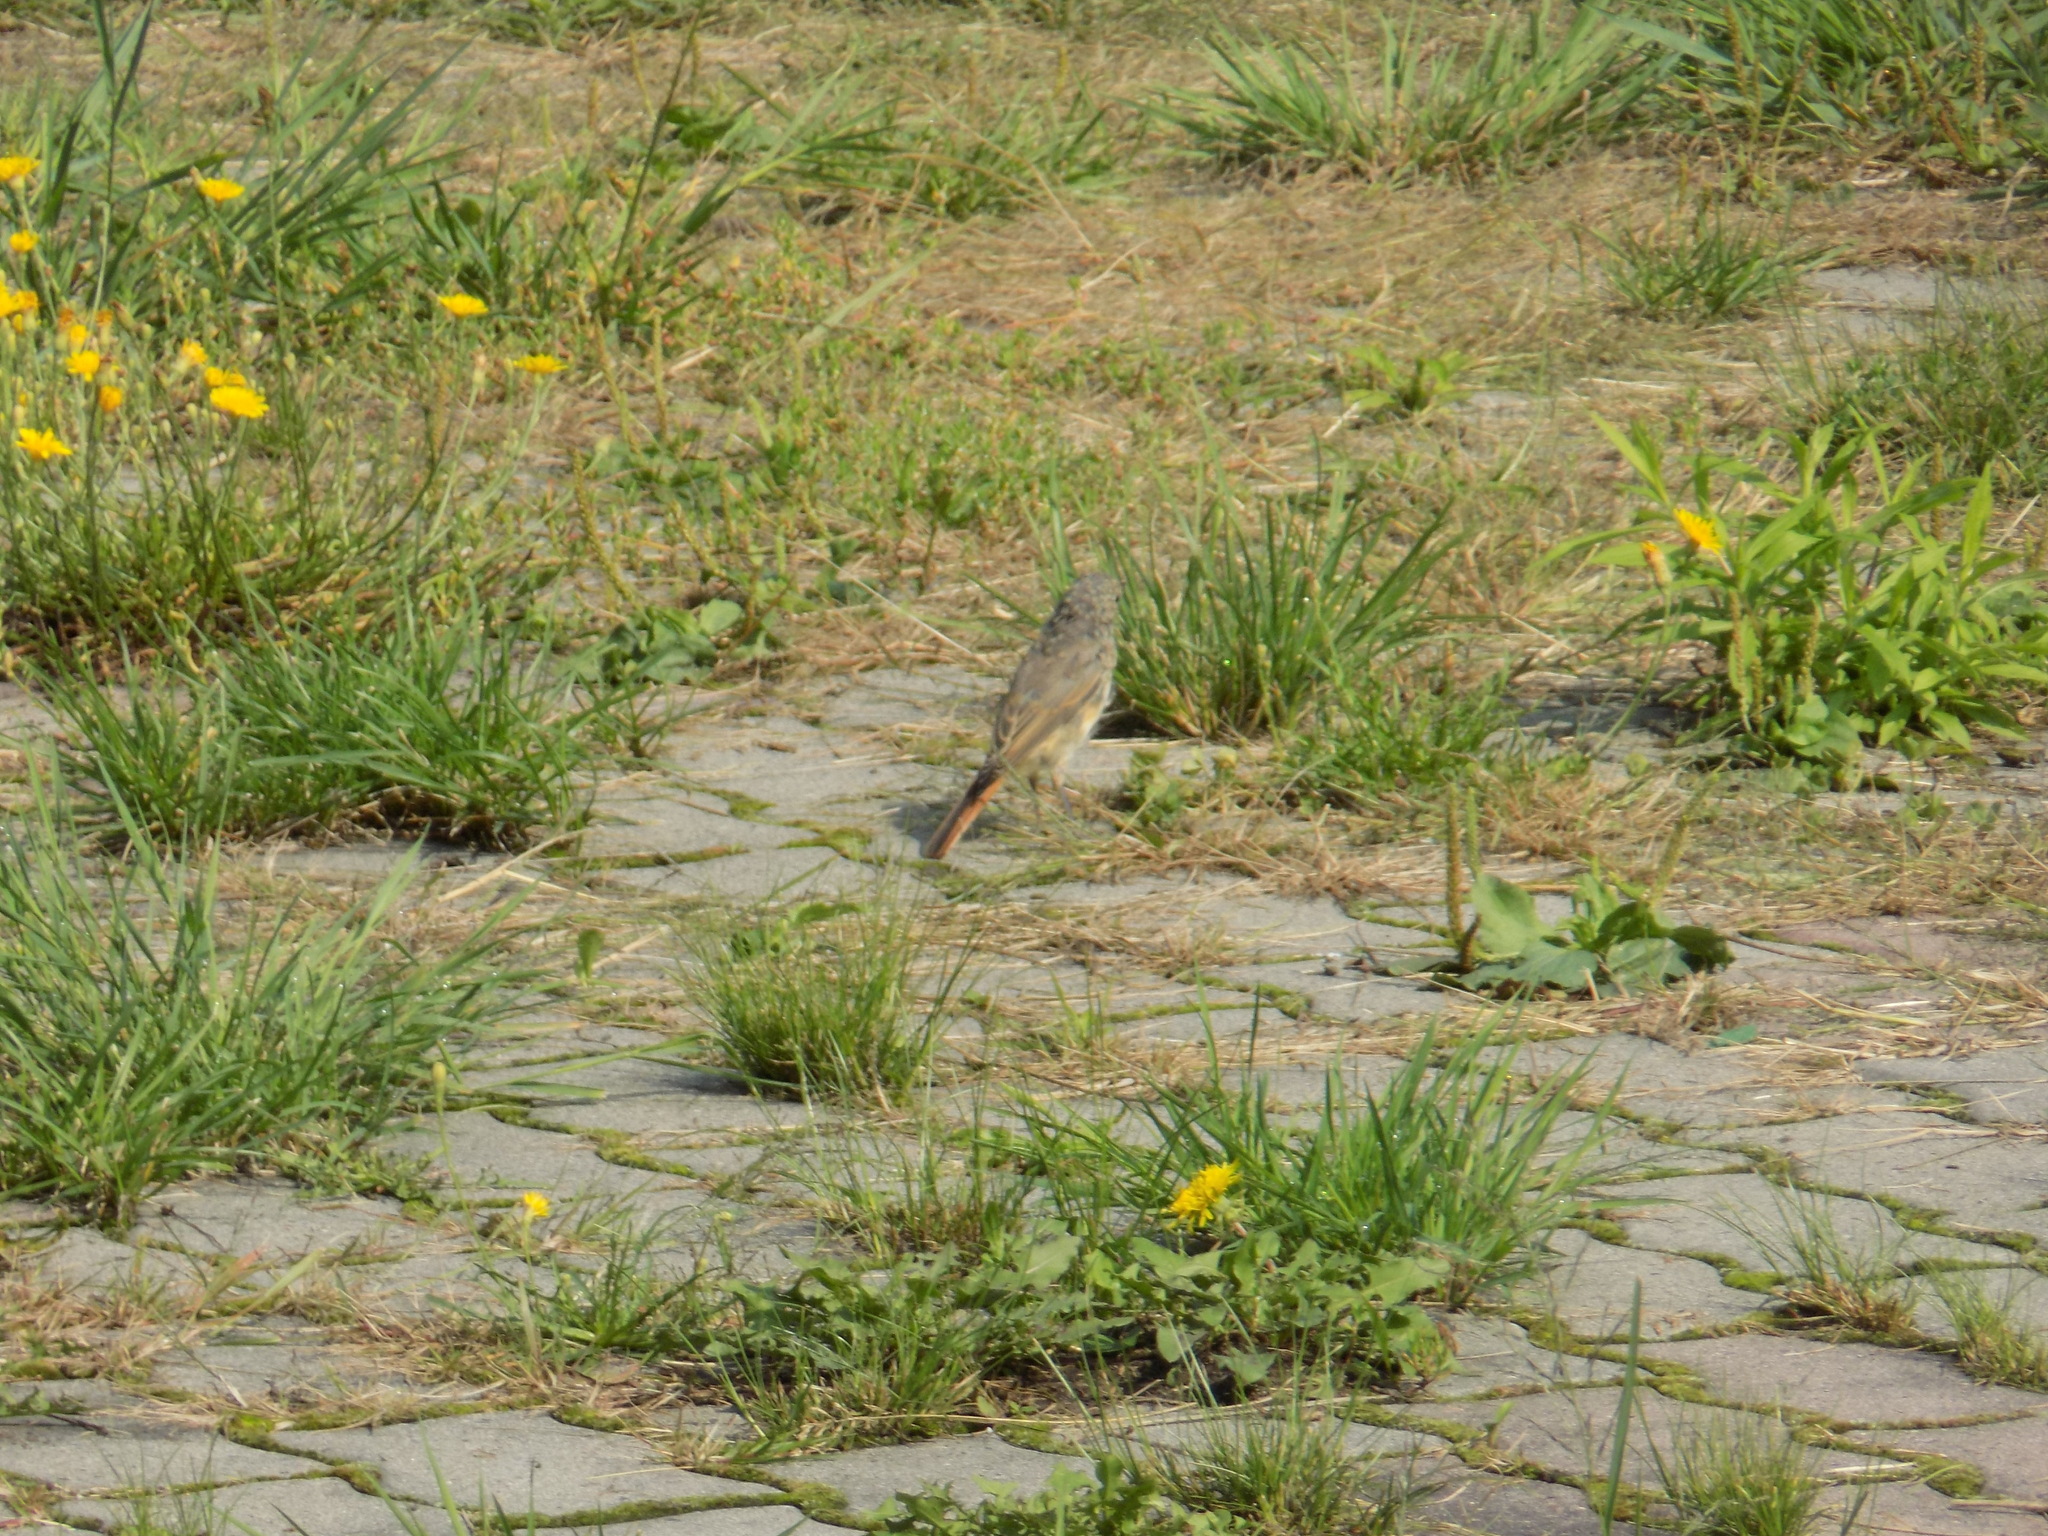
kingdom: Animalia
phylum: Chordata
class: Aves
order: Passeriformes
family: Muscicapidae
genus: Phoenicurus
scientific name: Phoenicurus phoenicurus
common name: Common redstart
